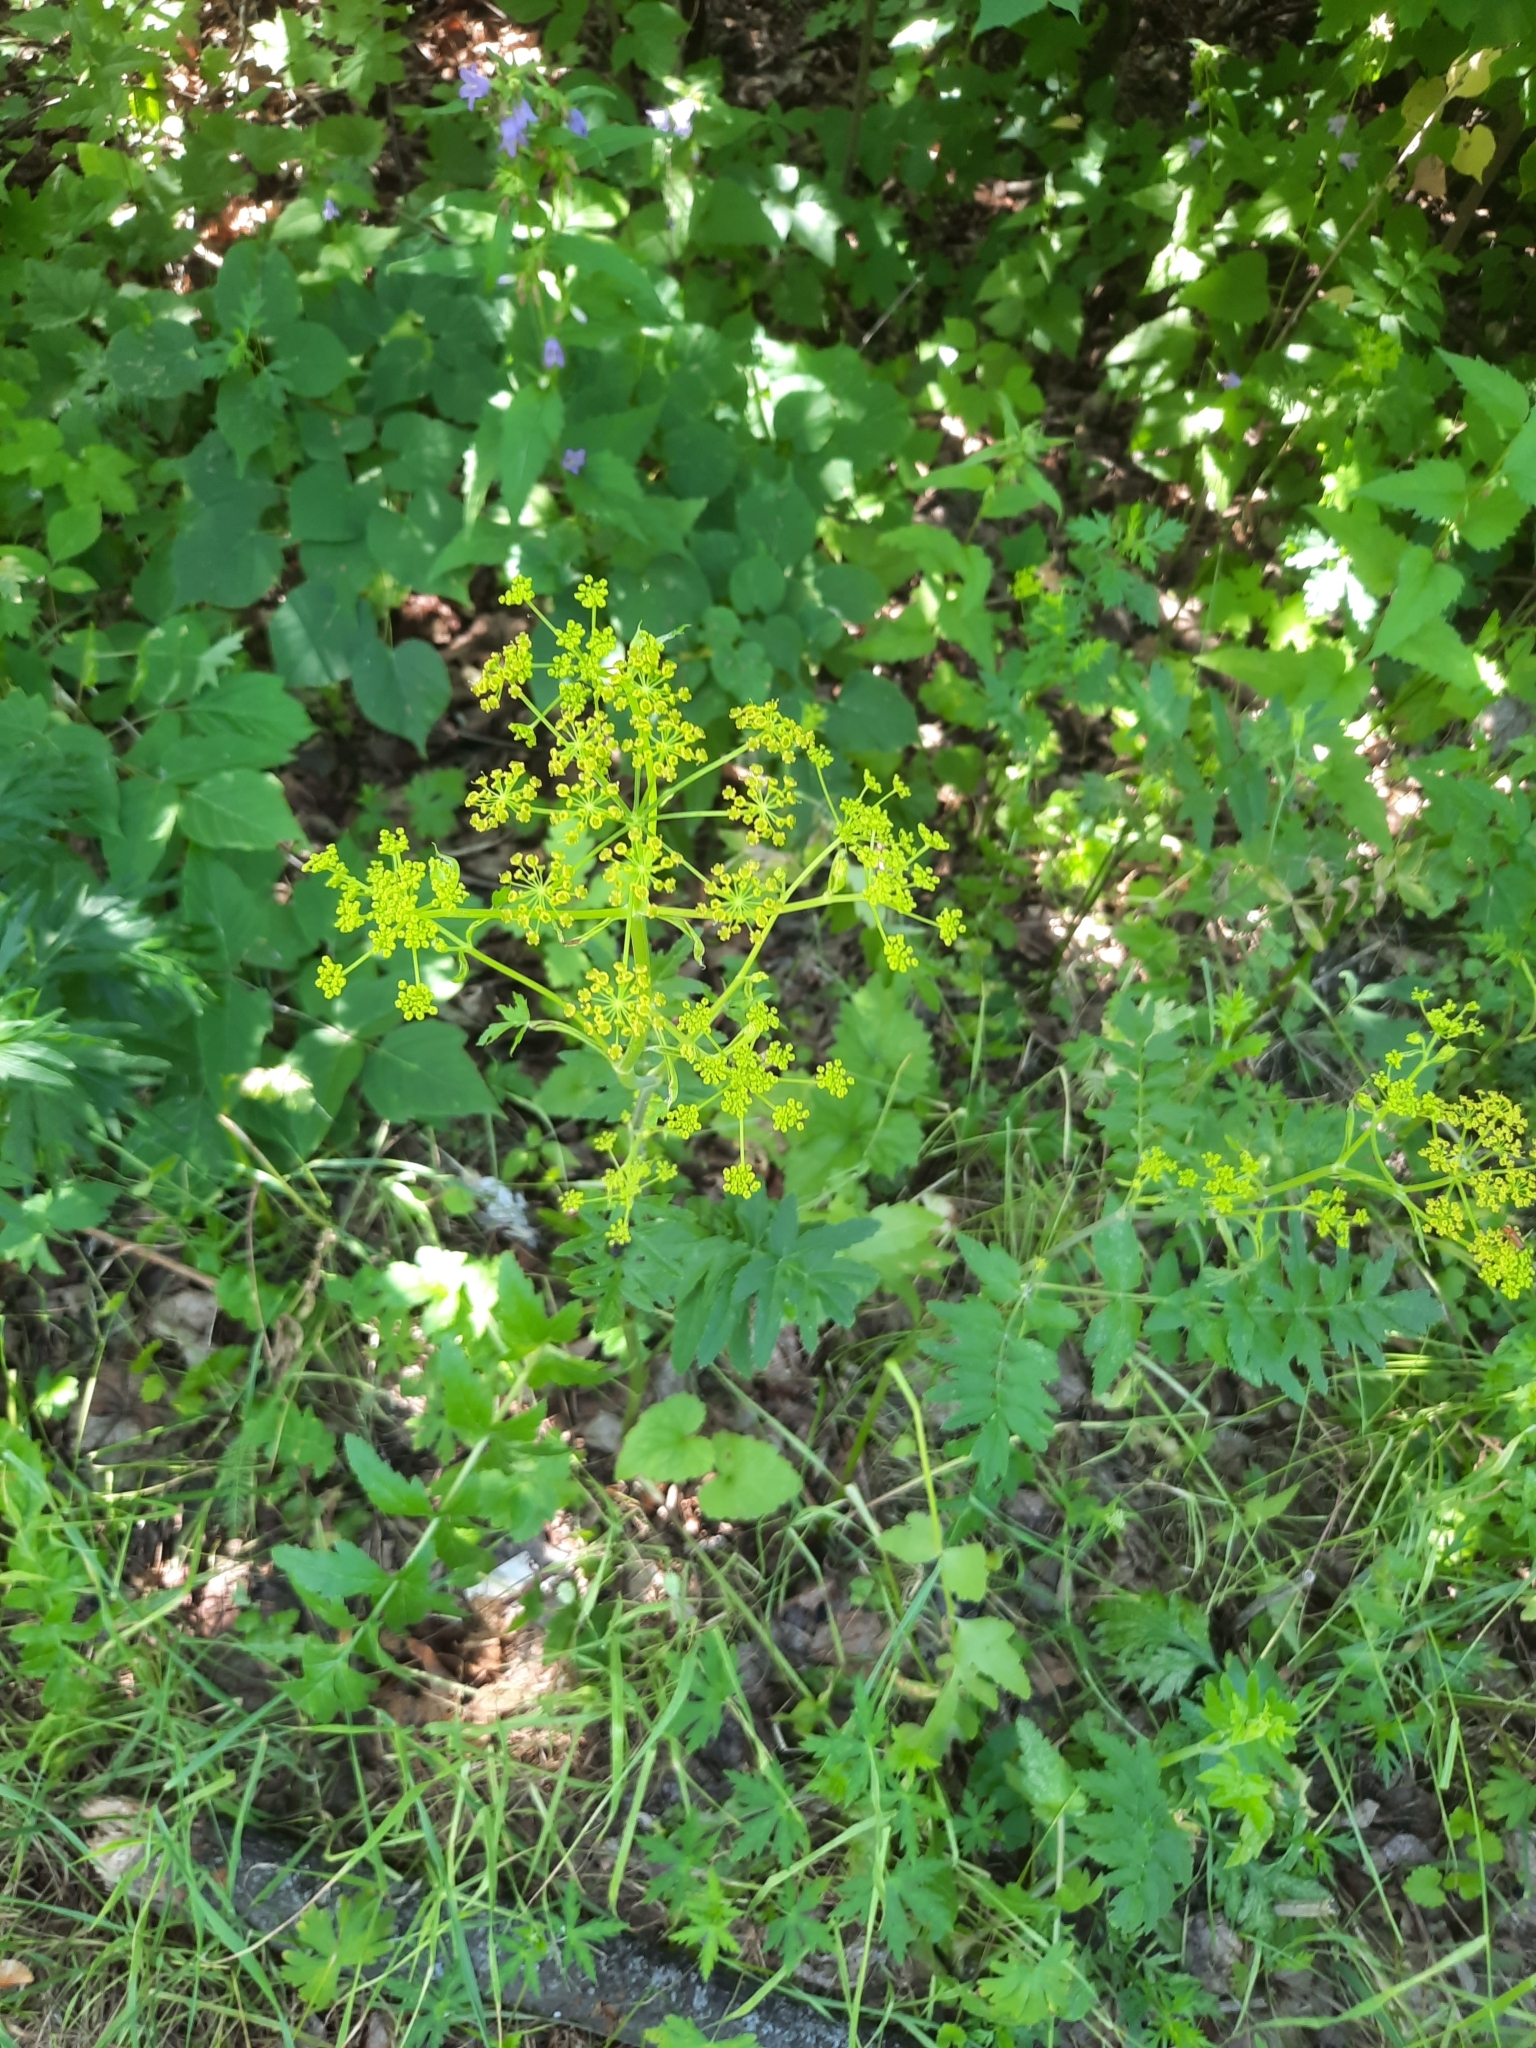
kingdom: Plantae
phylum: Tracheophyta
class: Magnoliopsida
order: Apiales
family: Apiaceae
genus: Pastinaca
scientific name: Pastinaca sativa
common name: Wild parsnip
